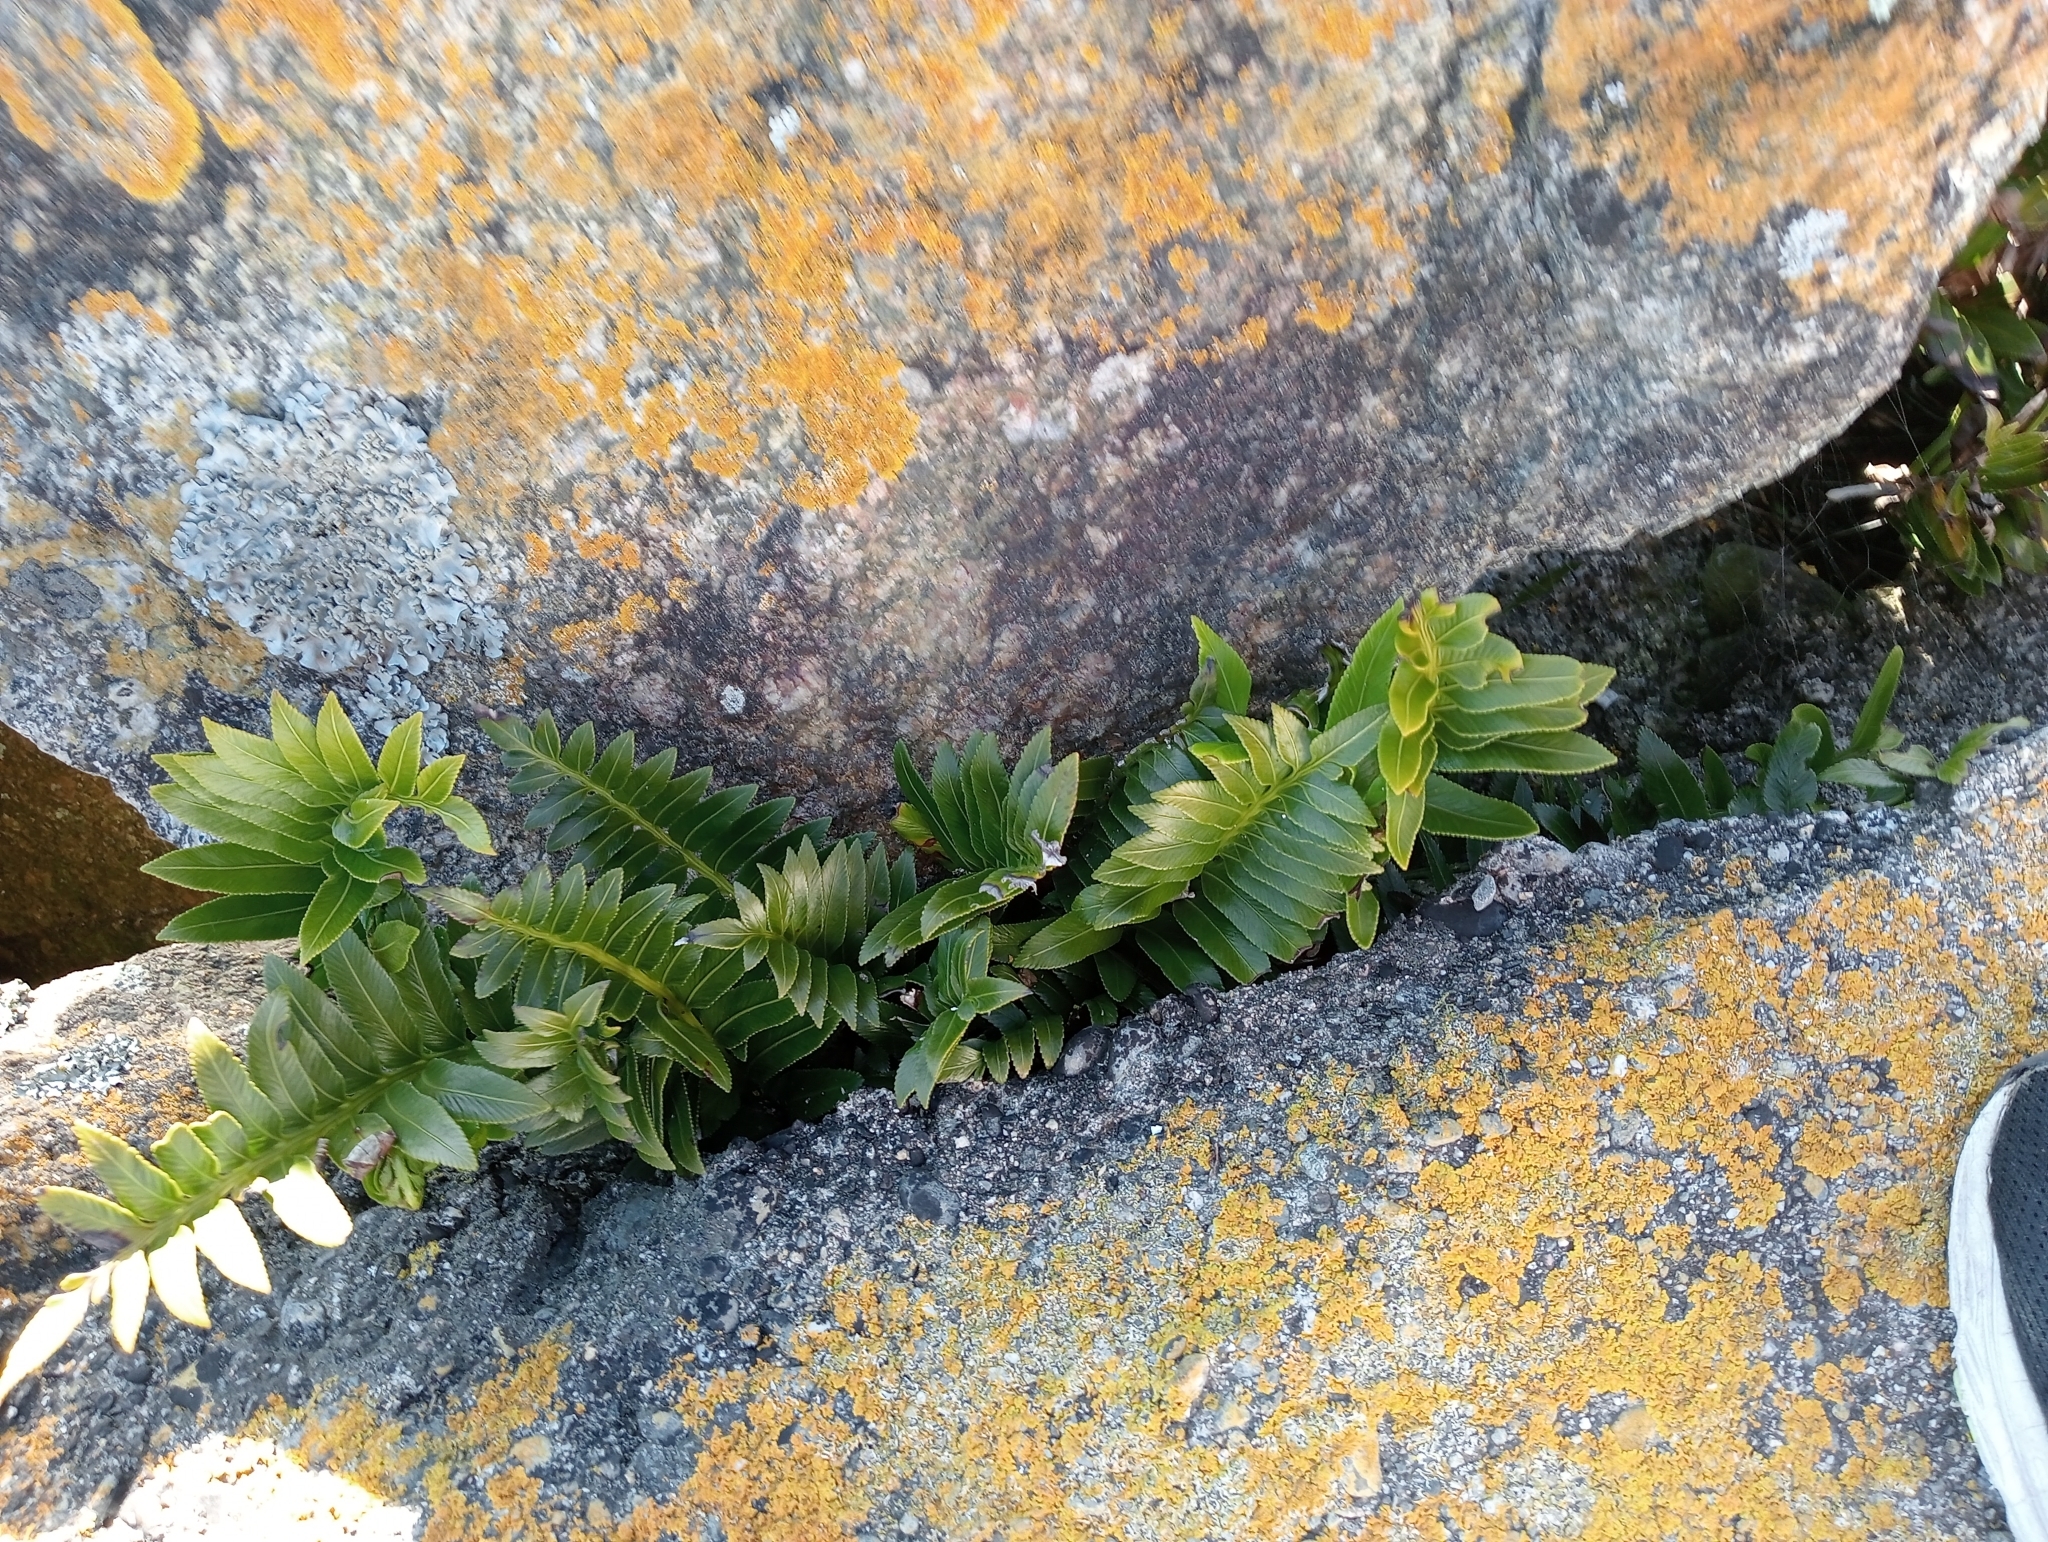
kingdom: Plantae
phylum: Tracheophyta
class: Polypodiopsida
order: Polypodiales
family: Aspleniaceae
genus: Asplenium
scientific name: Asplenium obtusatum
